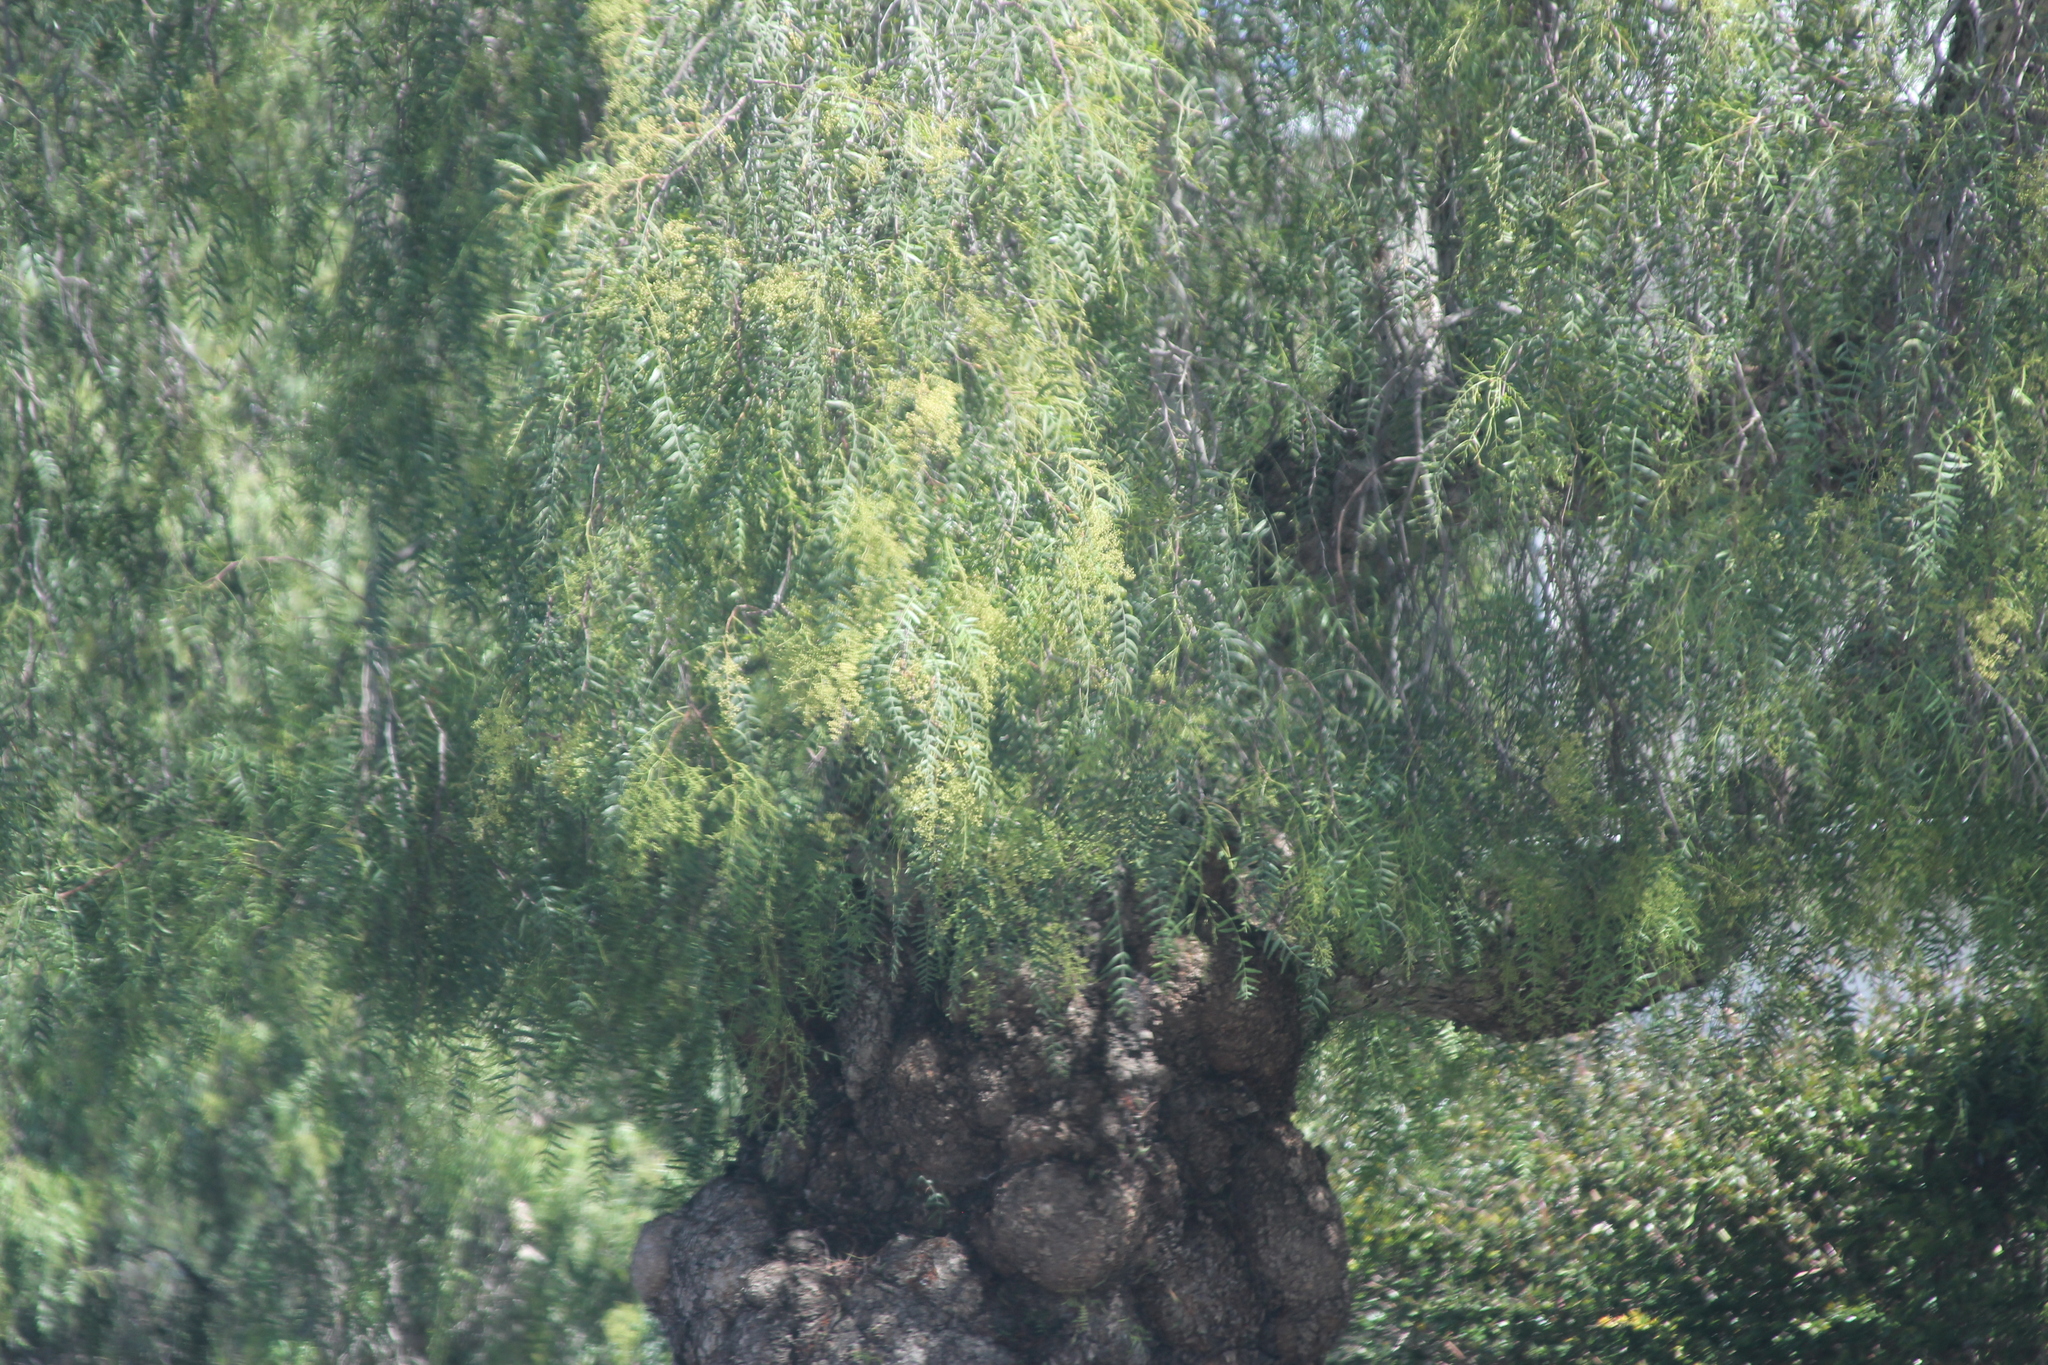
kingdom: Plantae
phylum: Tracheophyta
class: Magnoliopsida
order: Sapindales
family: Anacardiaceae
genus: Schinus
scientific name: Schinus molle
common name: Peruvian peppertree
